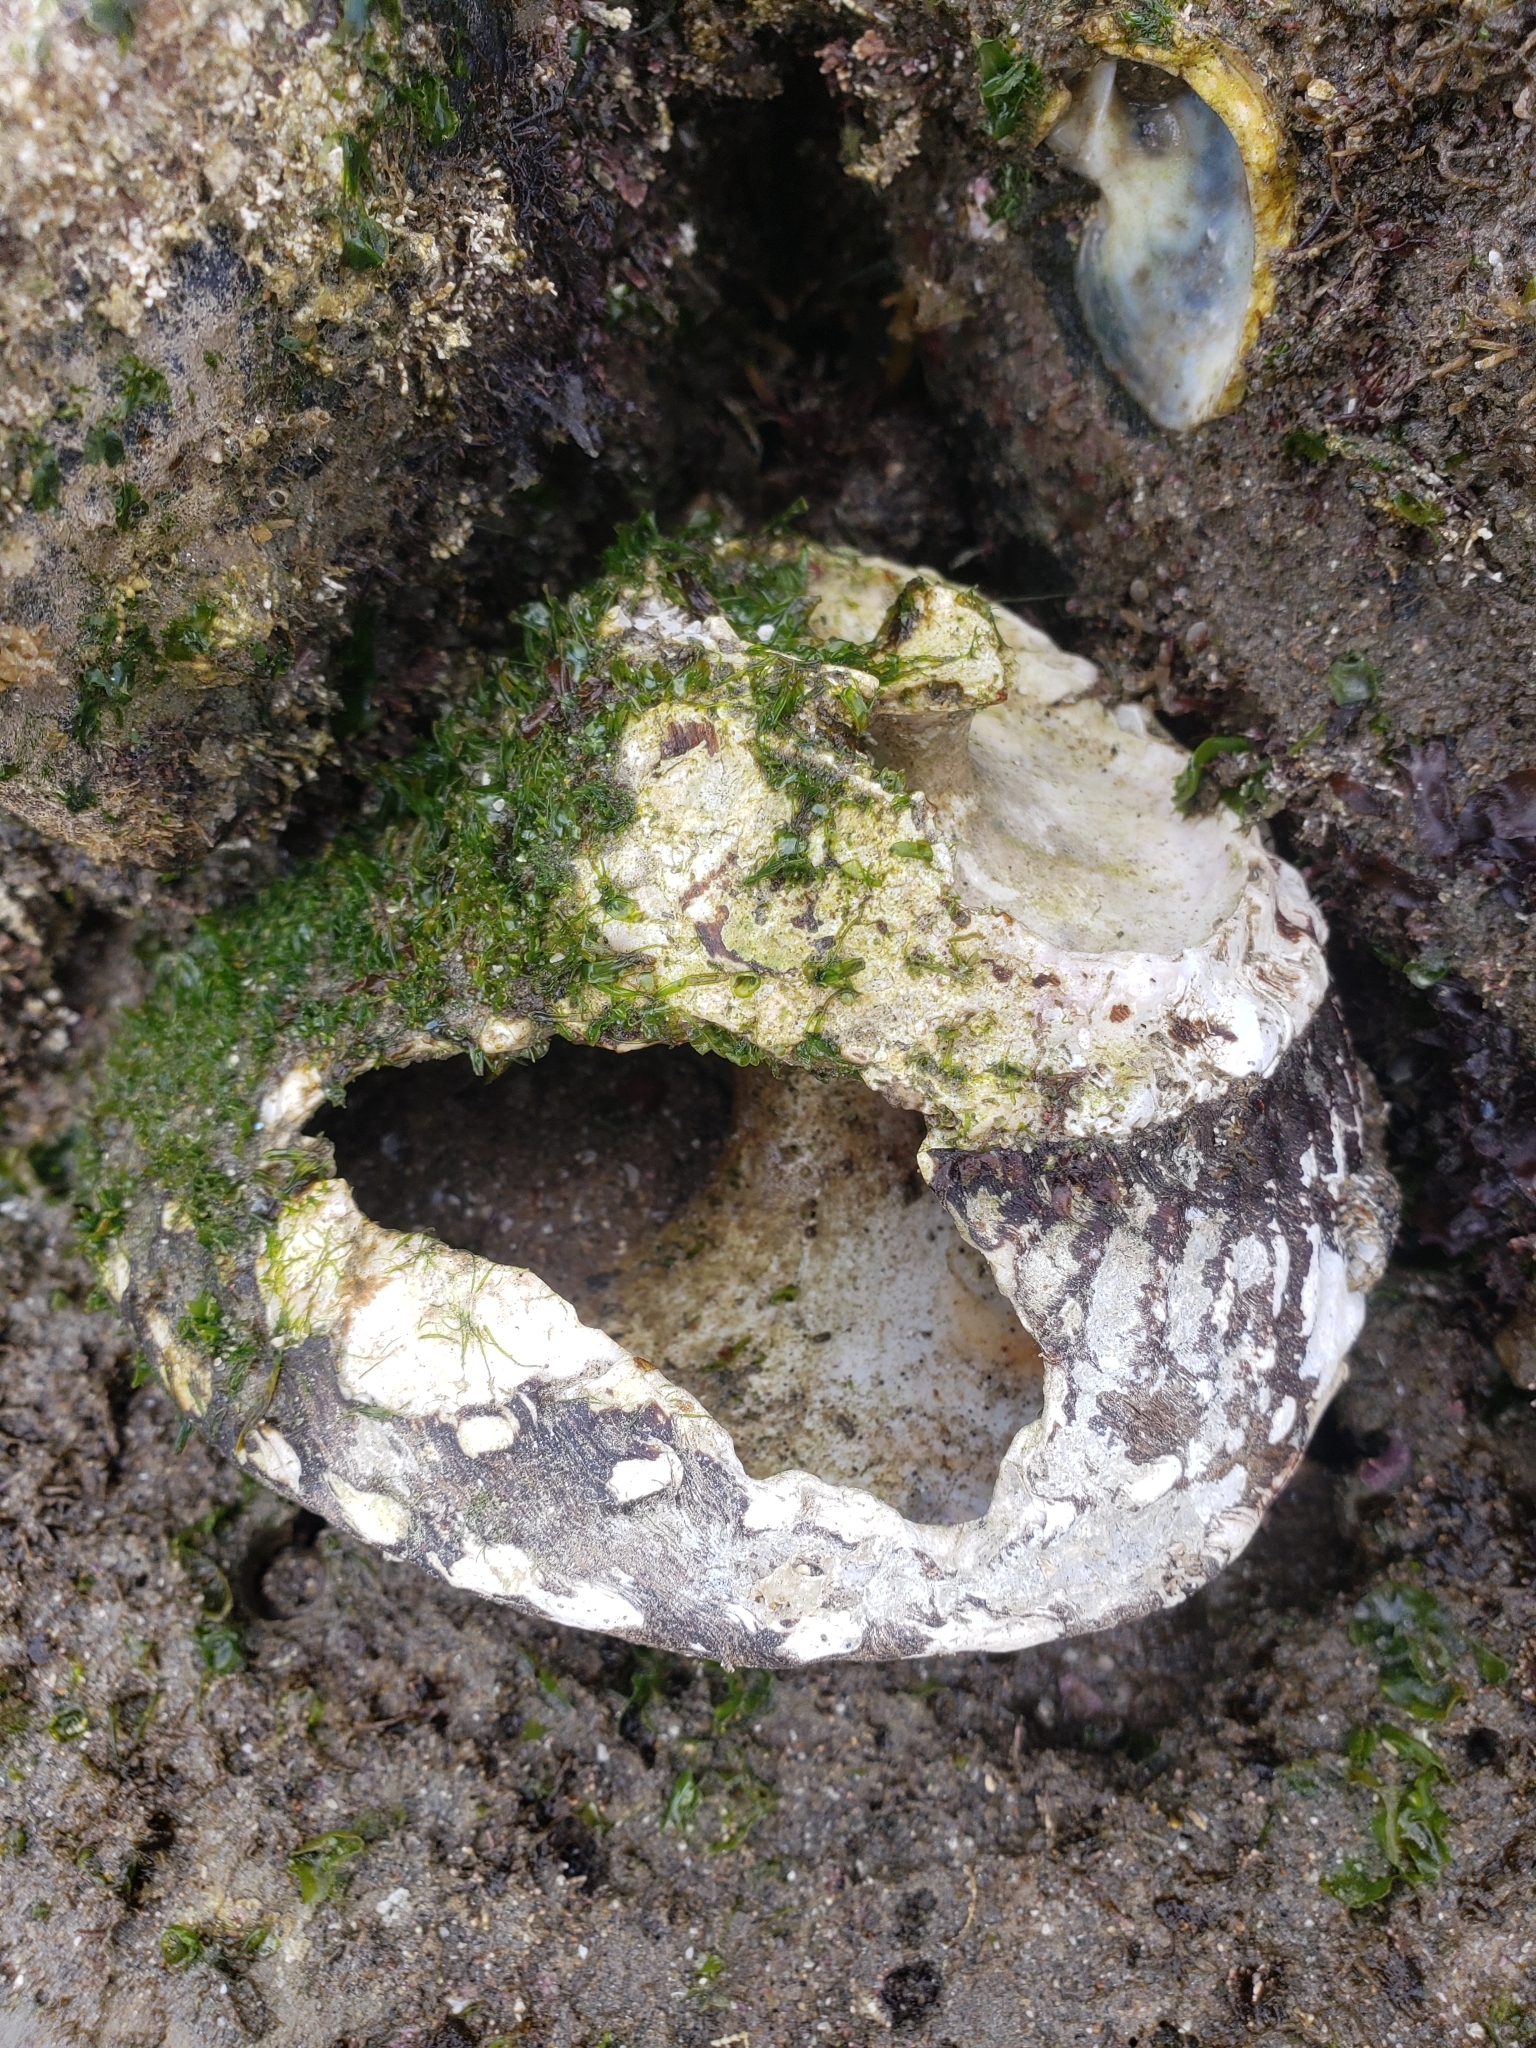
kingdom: Animalia
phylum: Mollusca
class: Gastropoda
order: Trochida
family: Turbinidae
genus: Megastraea
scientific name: Megastraea undosa
